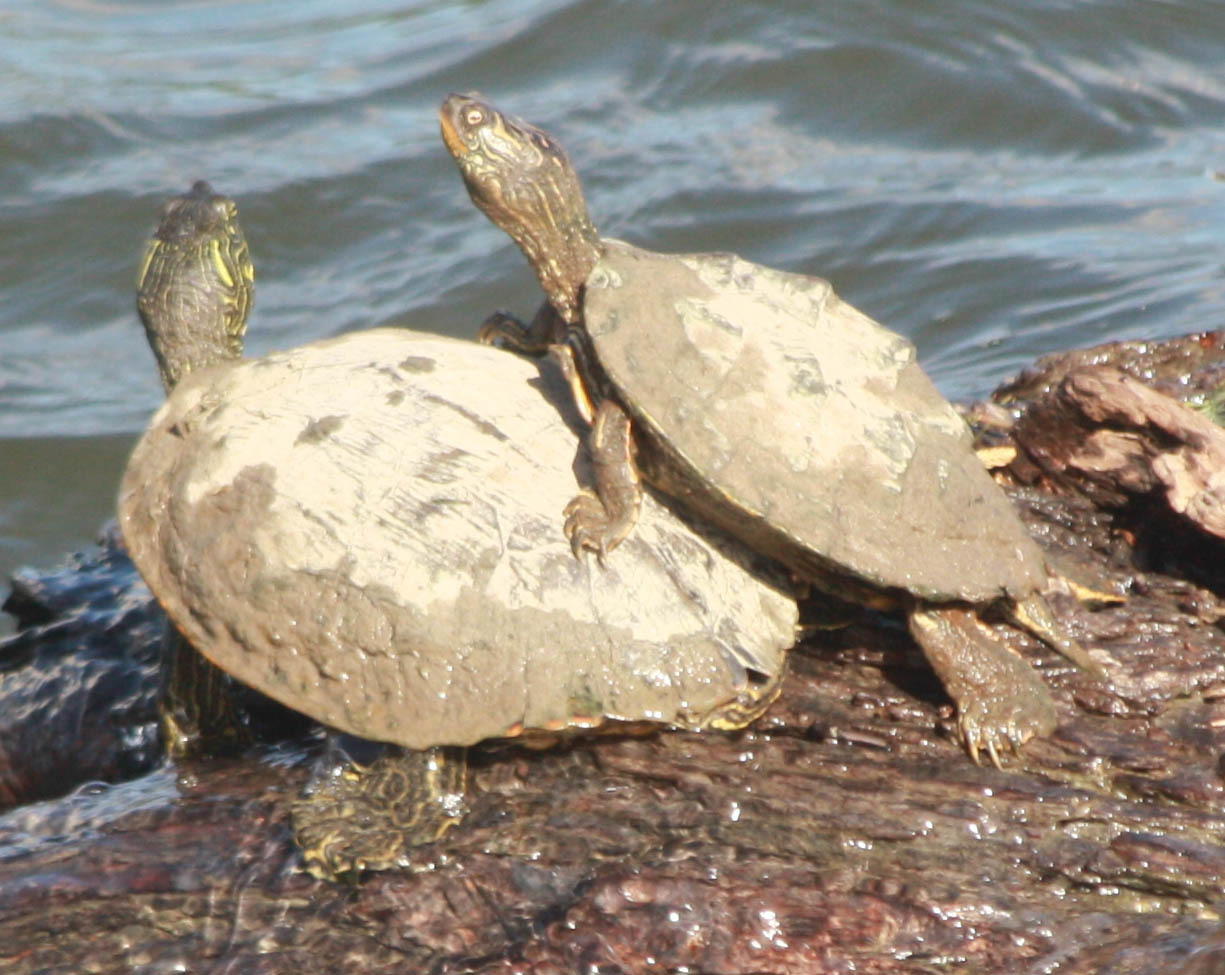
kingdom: Animalia
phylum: Chordata
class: Testudines
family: Emydidae
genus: Graptemys
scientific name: Graptemys versa
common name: Texas map turtle
